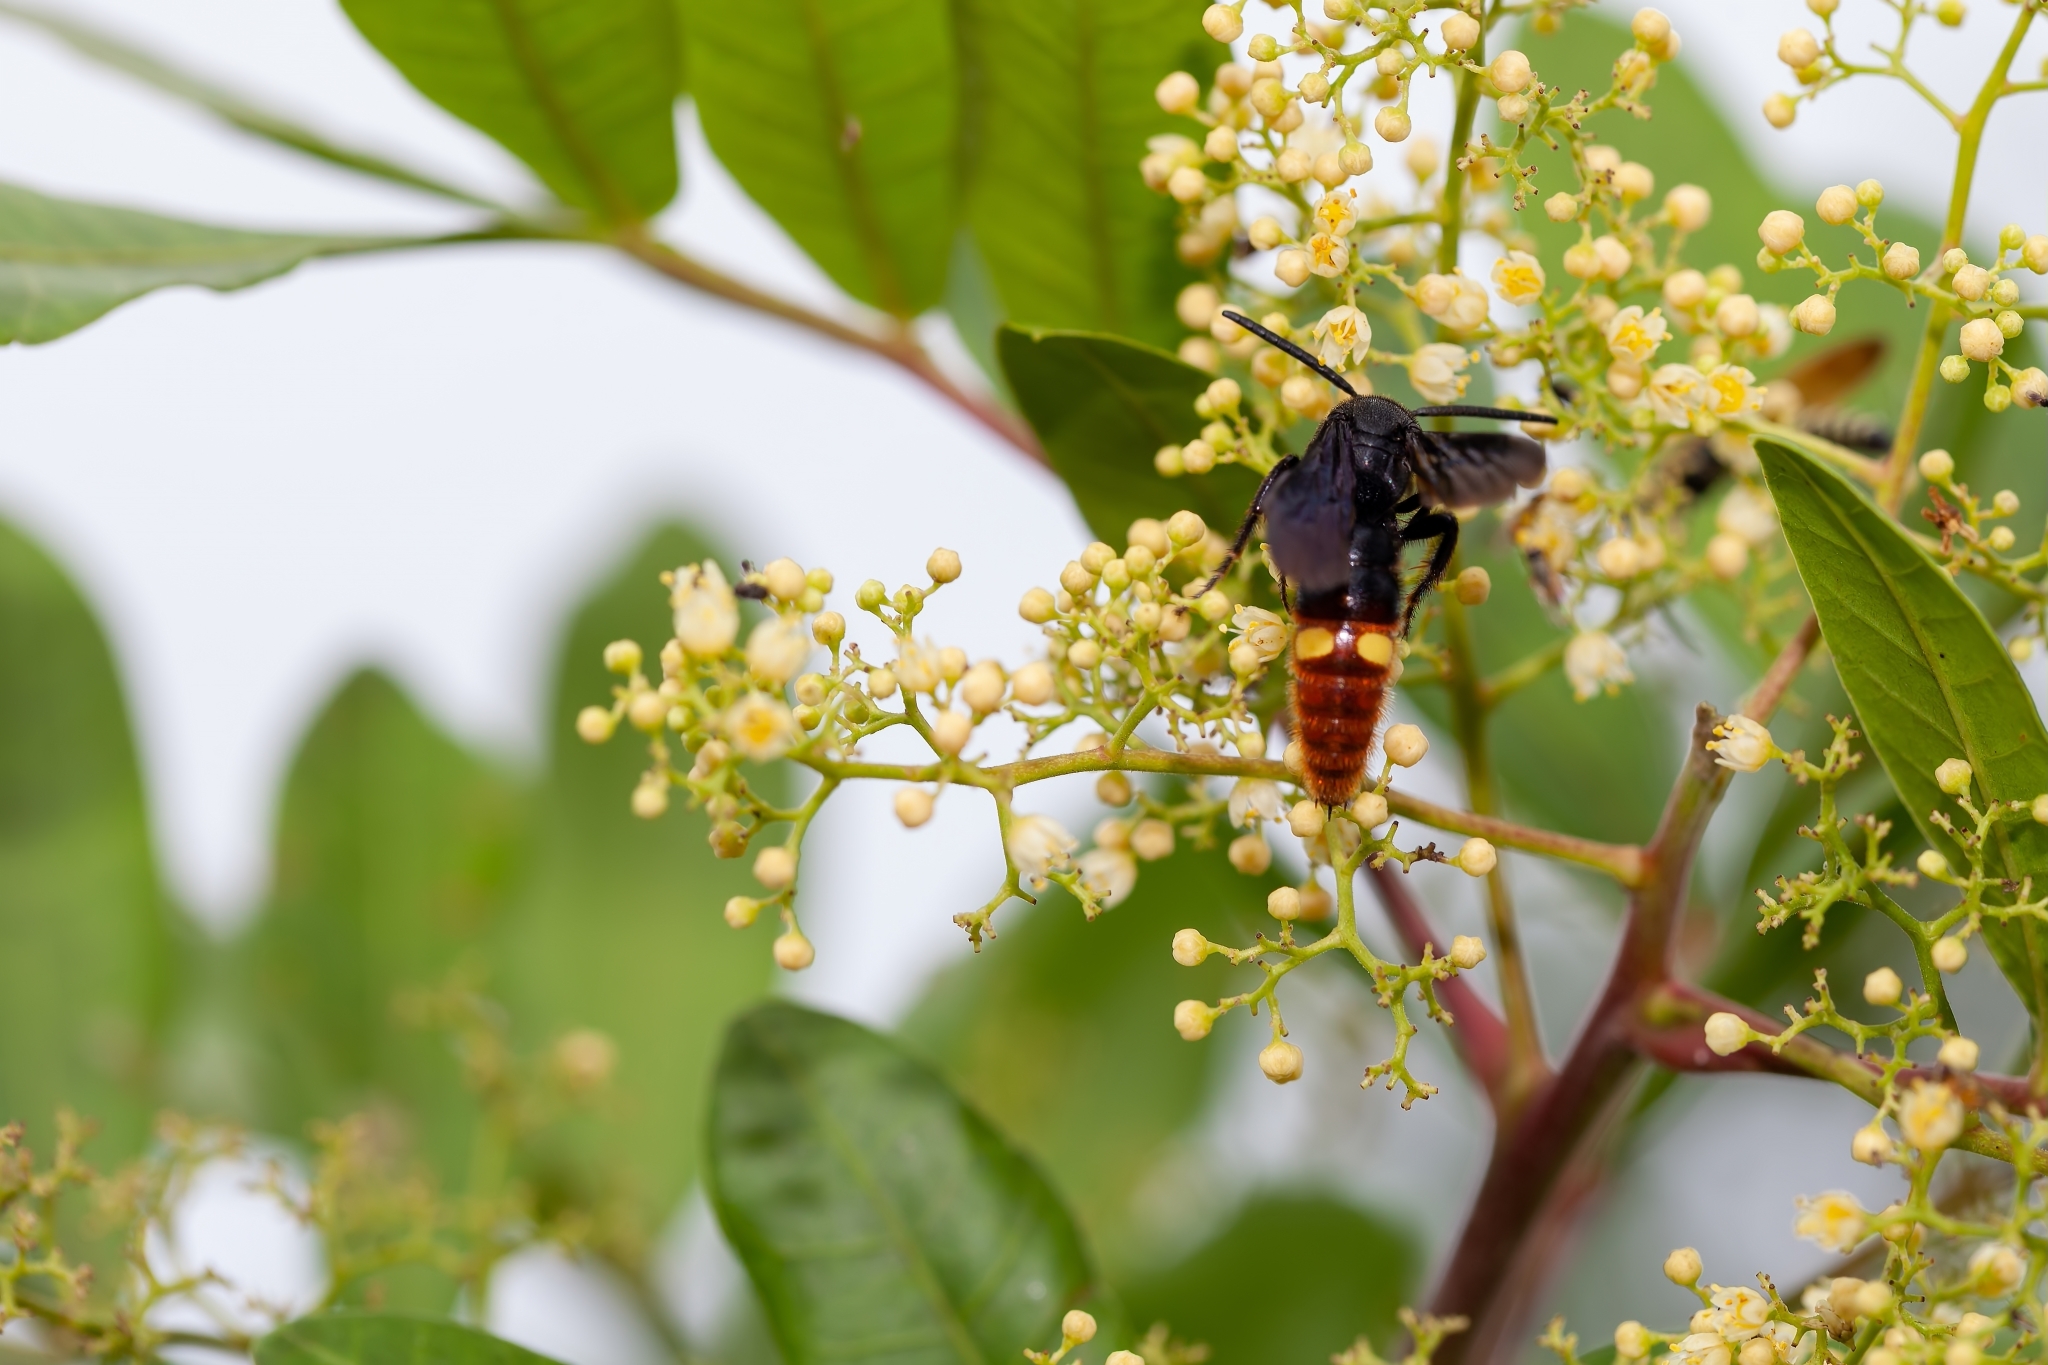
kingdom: Animalia
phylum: Arthropoda
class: Insecta
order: Hymenoptera
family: Scoliidae
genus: Scolia
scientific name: Scolia dubia
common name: Blue-winged scoliid wasp
